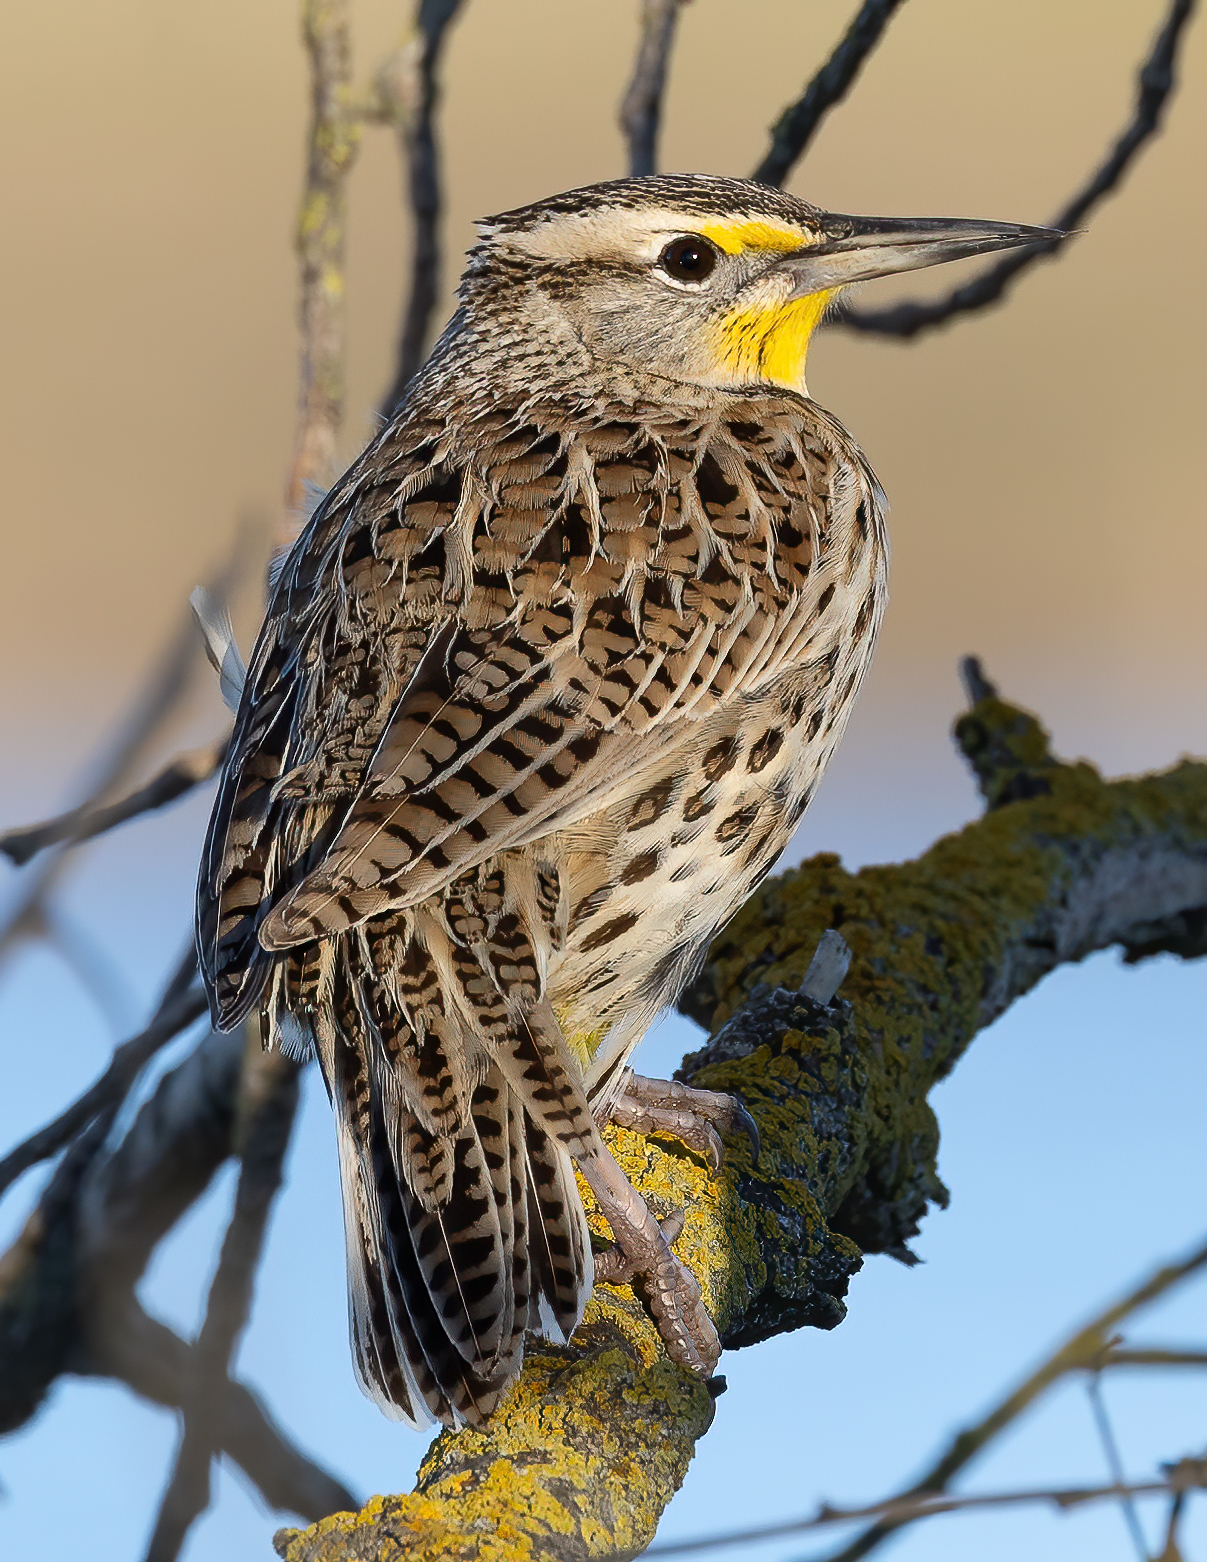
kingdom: Animalia
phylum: Chordata
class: Aves
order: Passeriformes
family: Icteridae
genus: Sturnella
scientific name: Sturnella neglecta
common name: Western meadowlark
